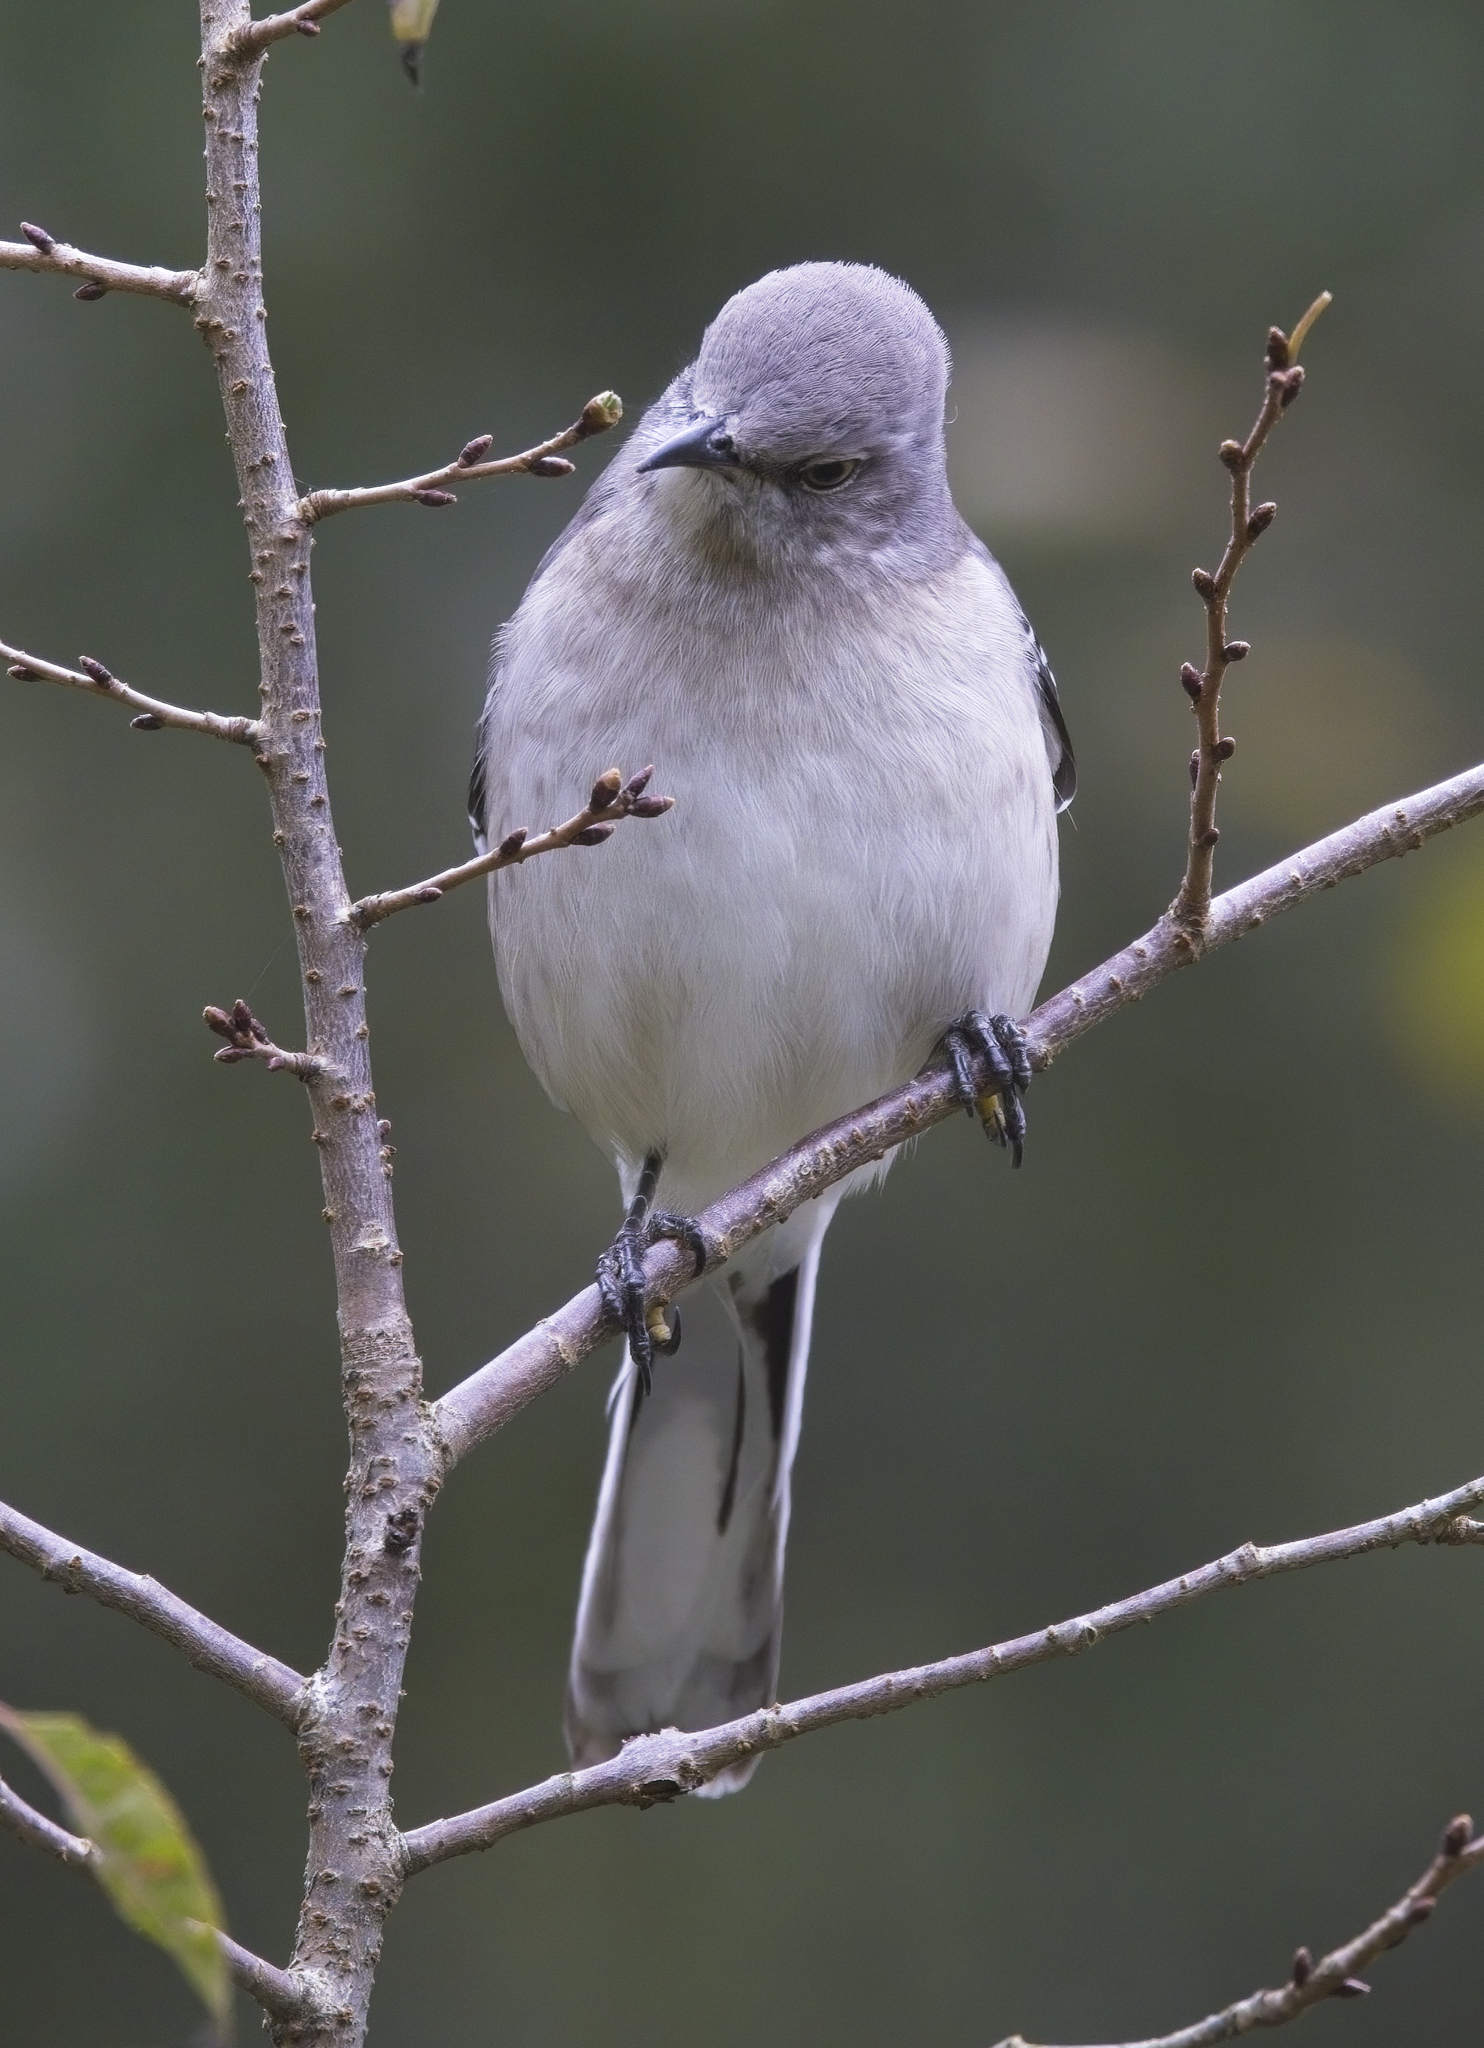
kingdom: Animalia
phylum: Chordata
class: Aves
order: Passeriformes
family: Mimidae
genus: Mimus
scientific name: Mimus polyglottos
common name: Northern mockingbird
